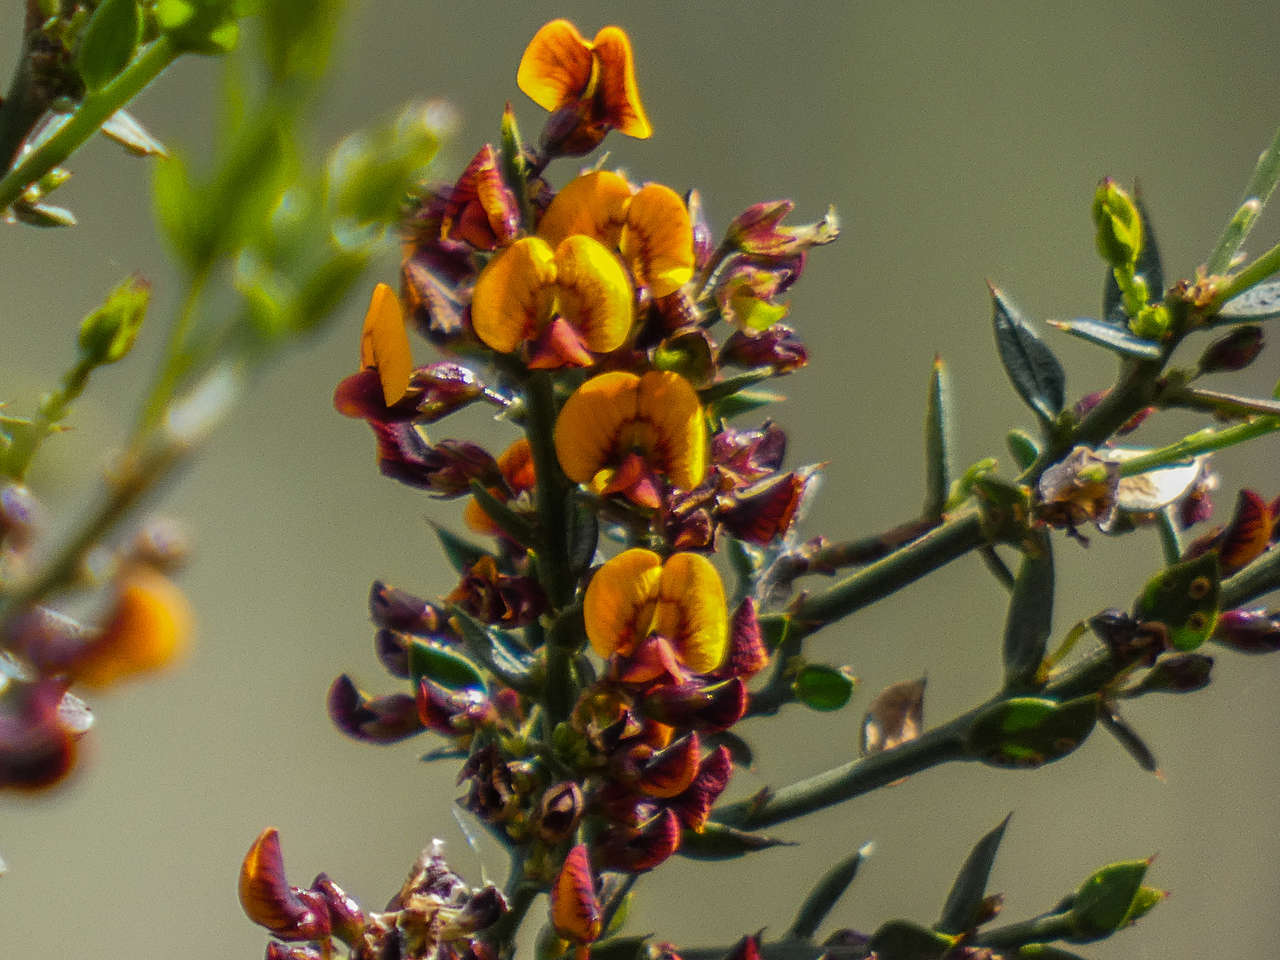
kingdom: Plantae
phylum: Tracheophyta
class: Magnoliopsida
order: Fabales
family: Fabaceae
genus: Daviesia
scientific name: Daviesia ulicifolia
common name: Gorse bitter-pea
